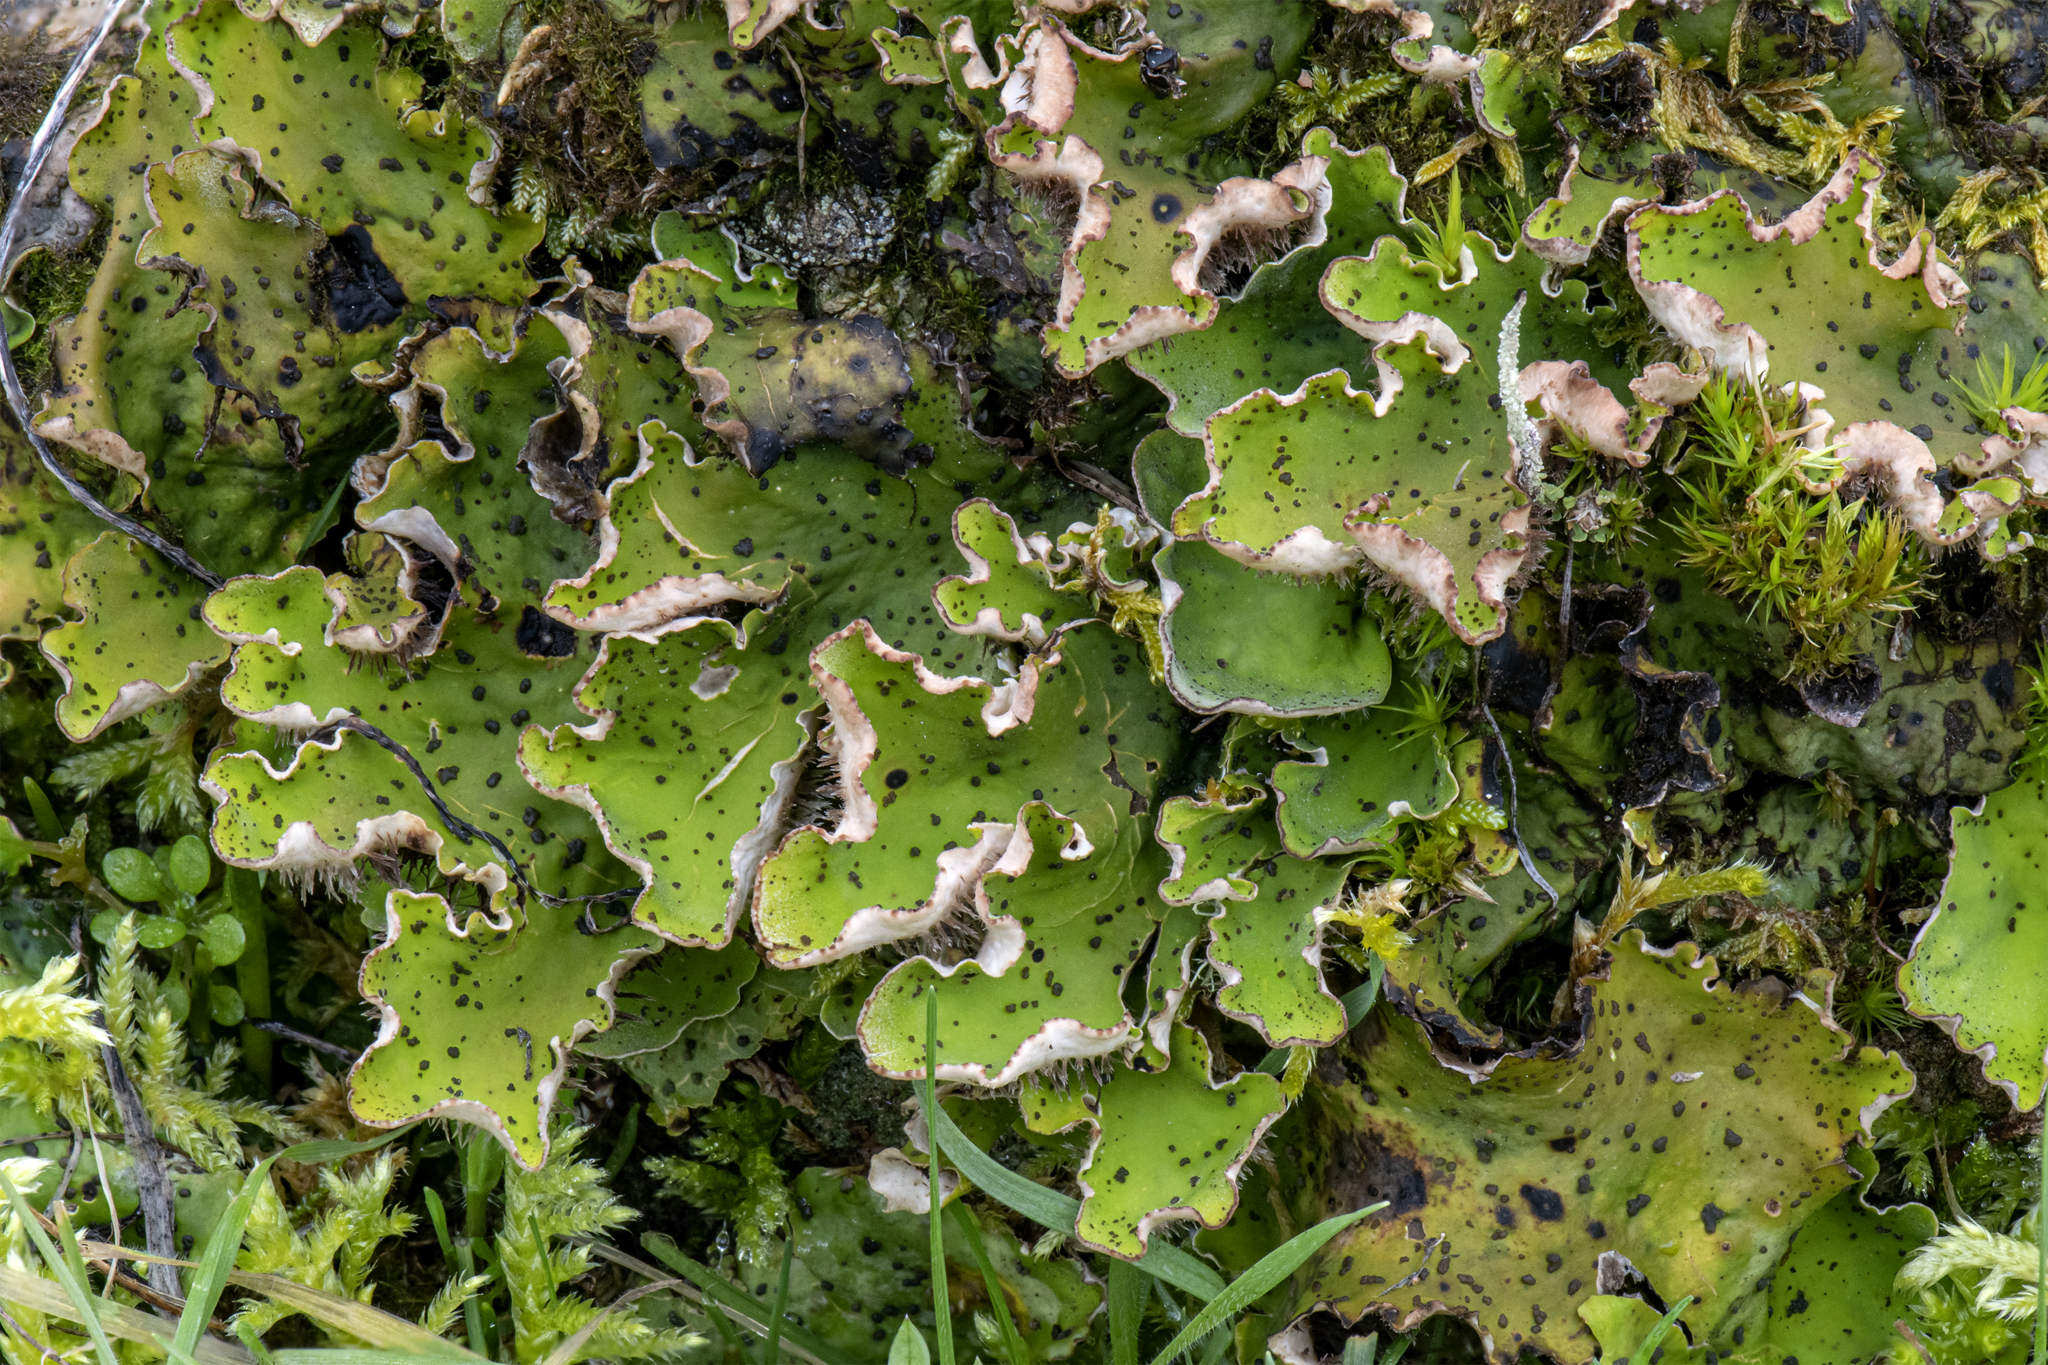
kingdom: Fungi
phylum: Ascomycota
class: Lecanoromycetes
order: Peltigerales
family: Peltigeraceae
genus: Peltigera
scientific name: Peltigera leucophlebia
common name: Ruffled freckle pelt lichen
